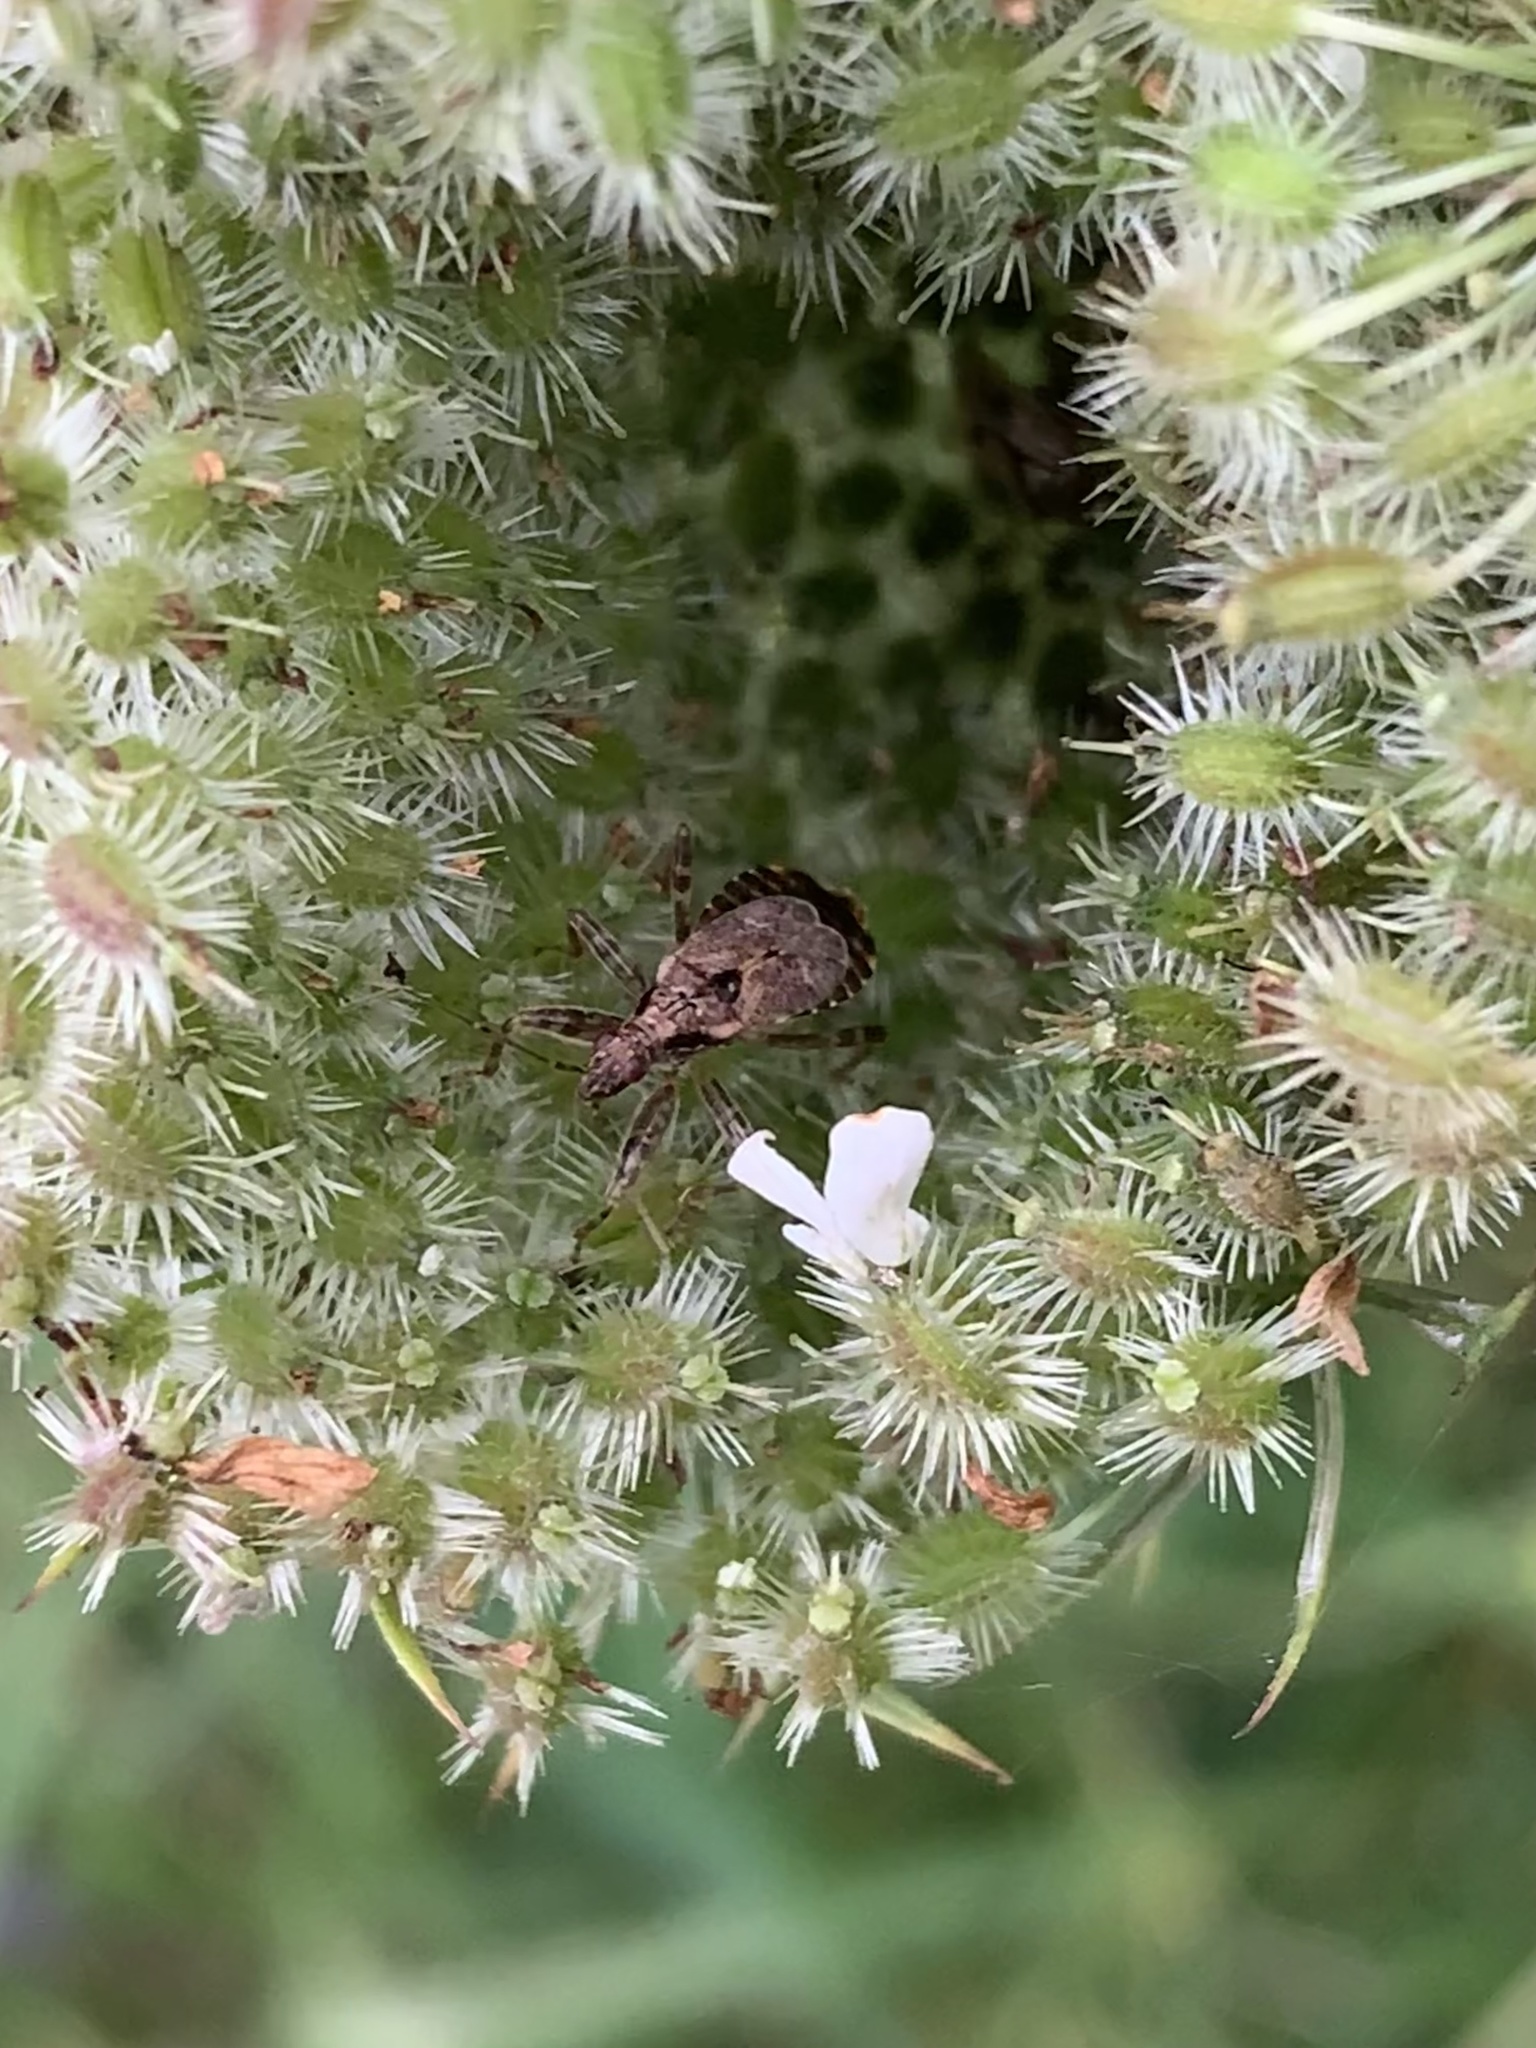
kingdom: Animalia
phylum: Arthropoda
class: Insecta
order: Hemiptera
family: Nabidae
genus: Himacerus
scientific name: Himacerus mirmicoides
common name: Ant damsel bug
